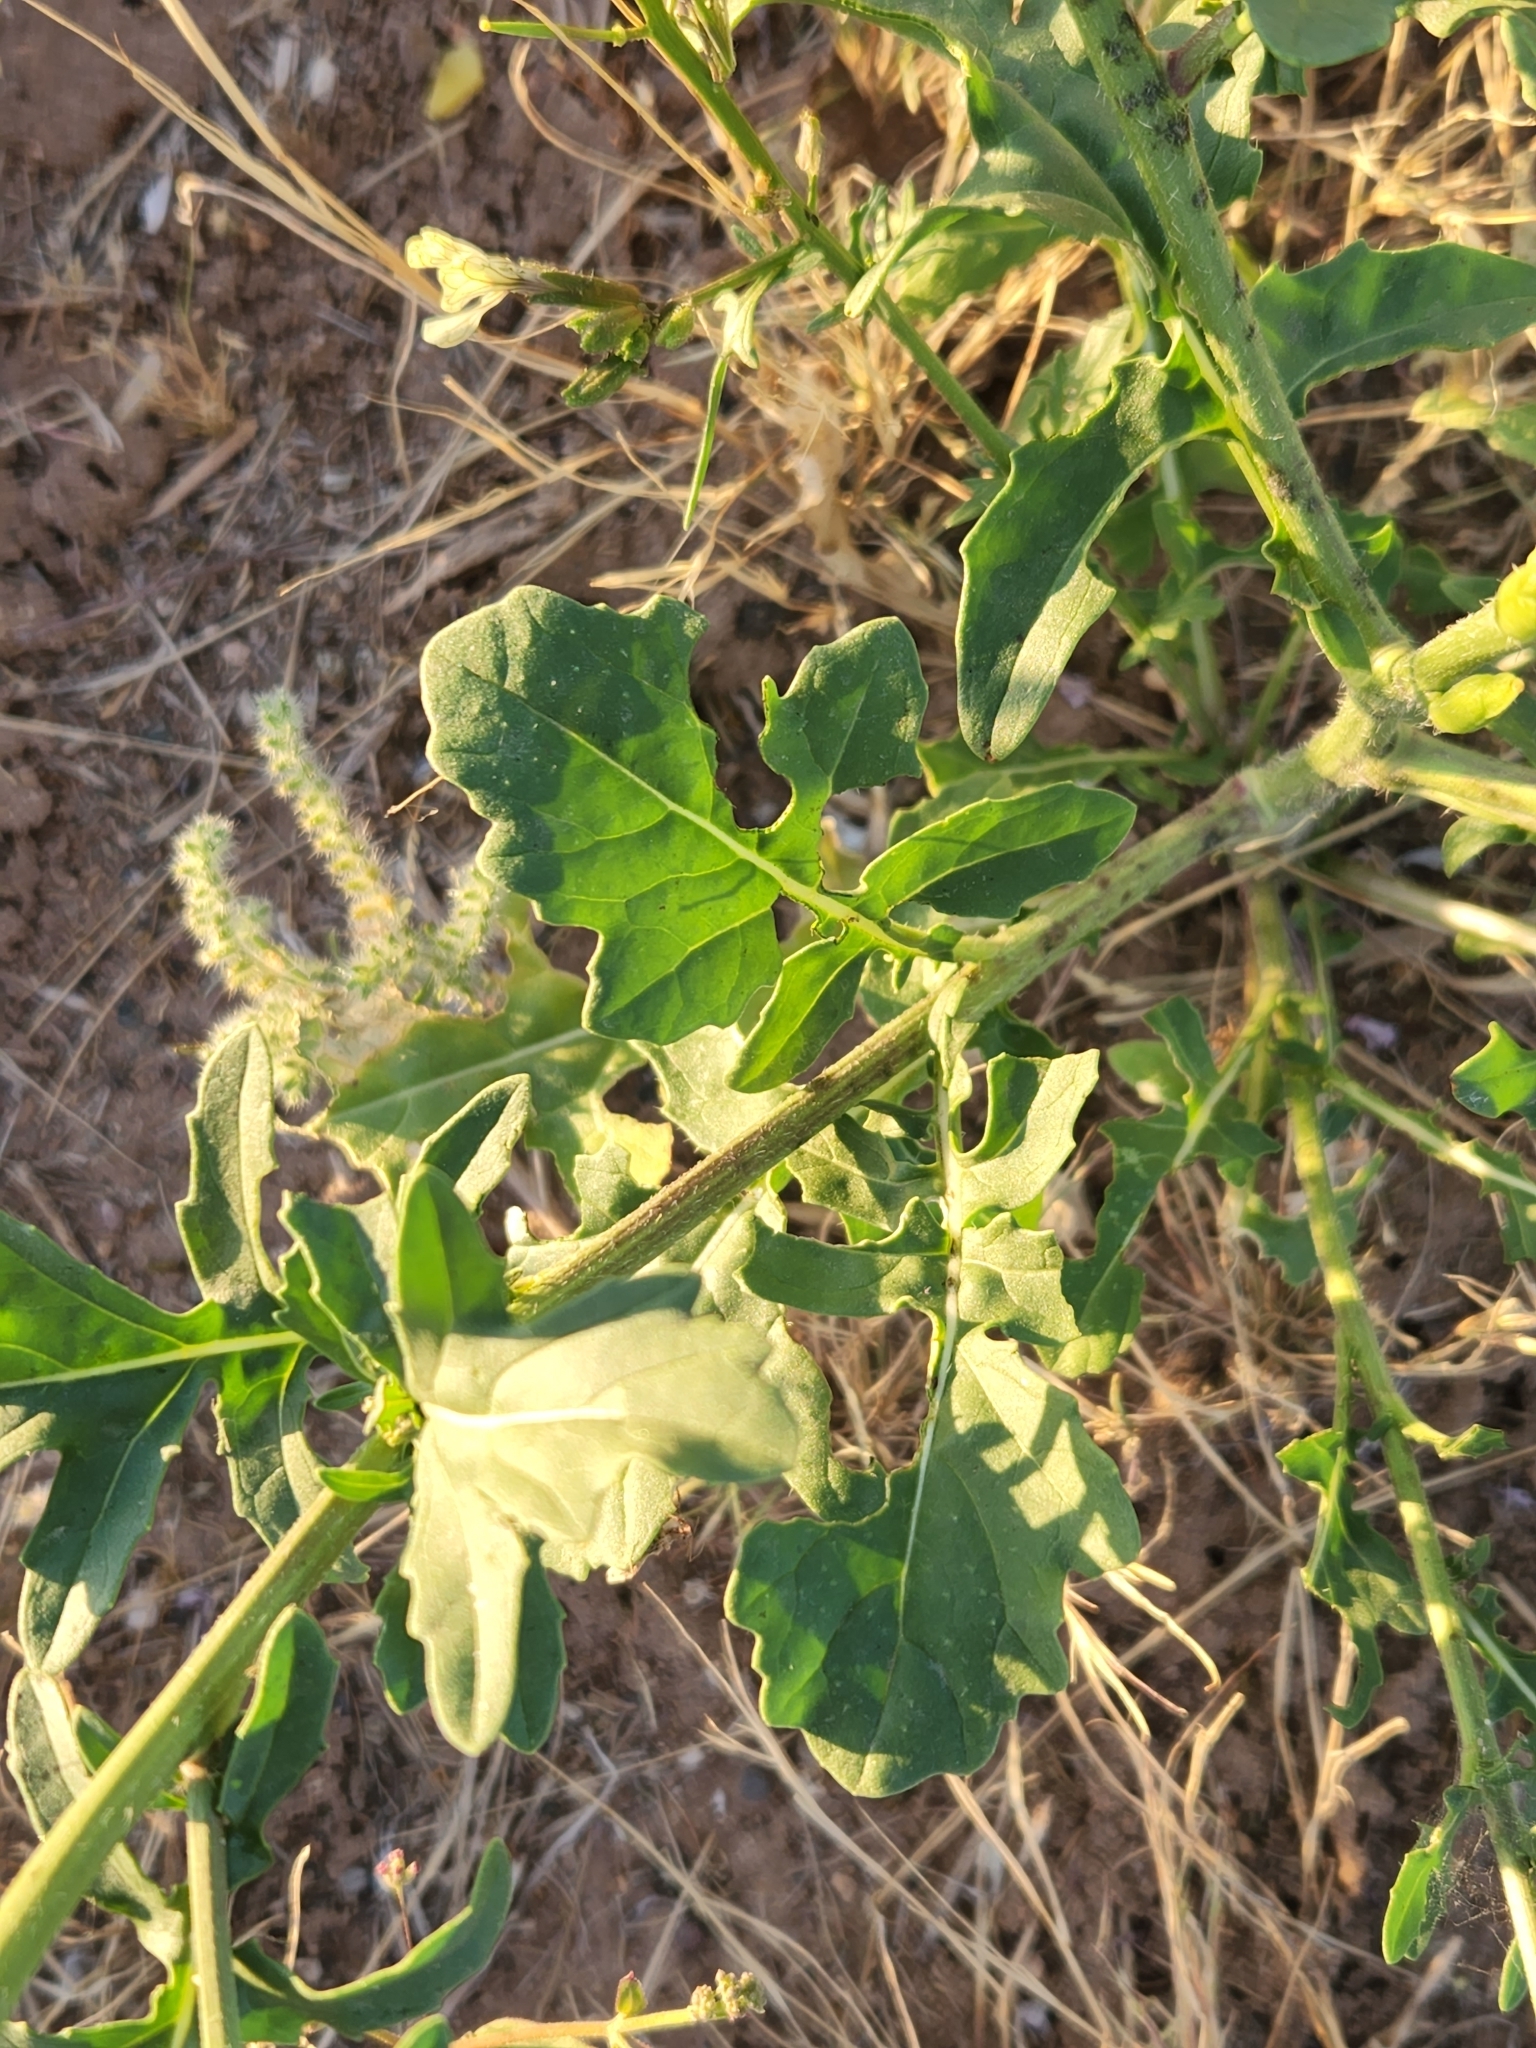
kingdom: Plantae
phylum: Tracheophyta
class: Magnoliopsida
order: Brassicales
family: Brassicaceae
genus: Eruca
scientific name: Eruca vesicaria
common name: Garden rocket
